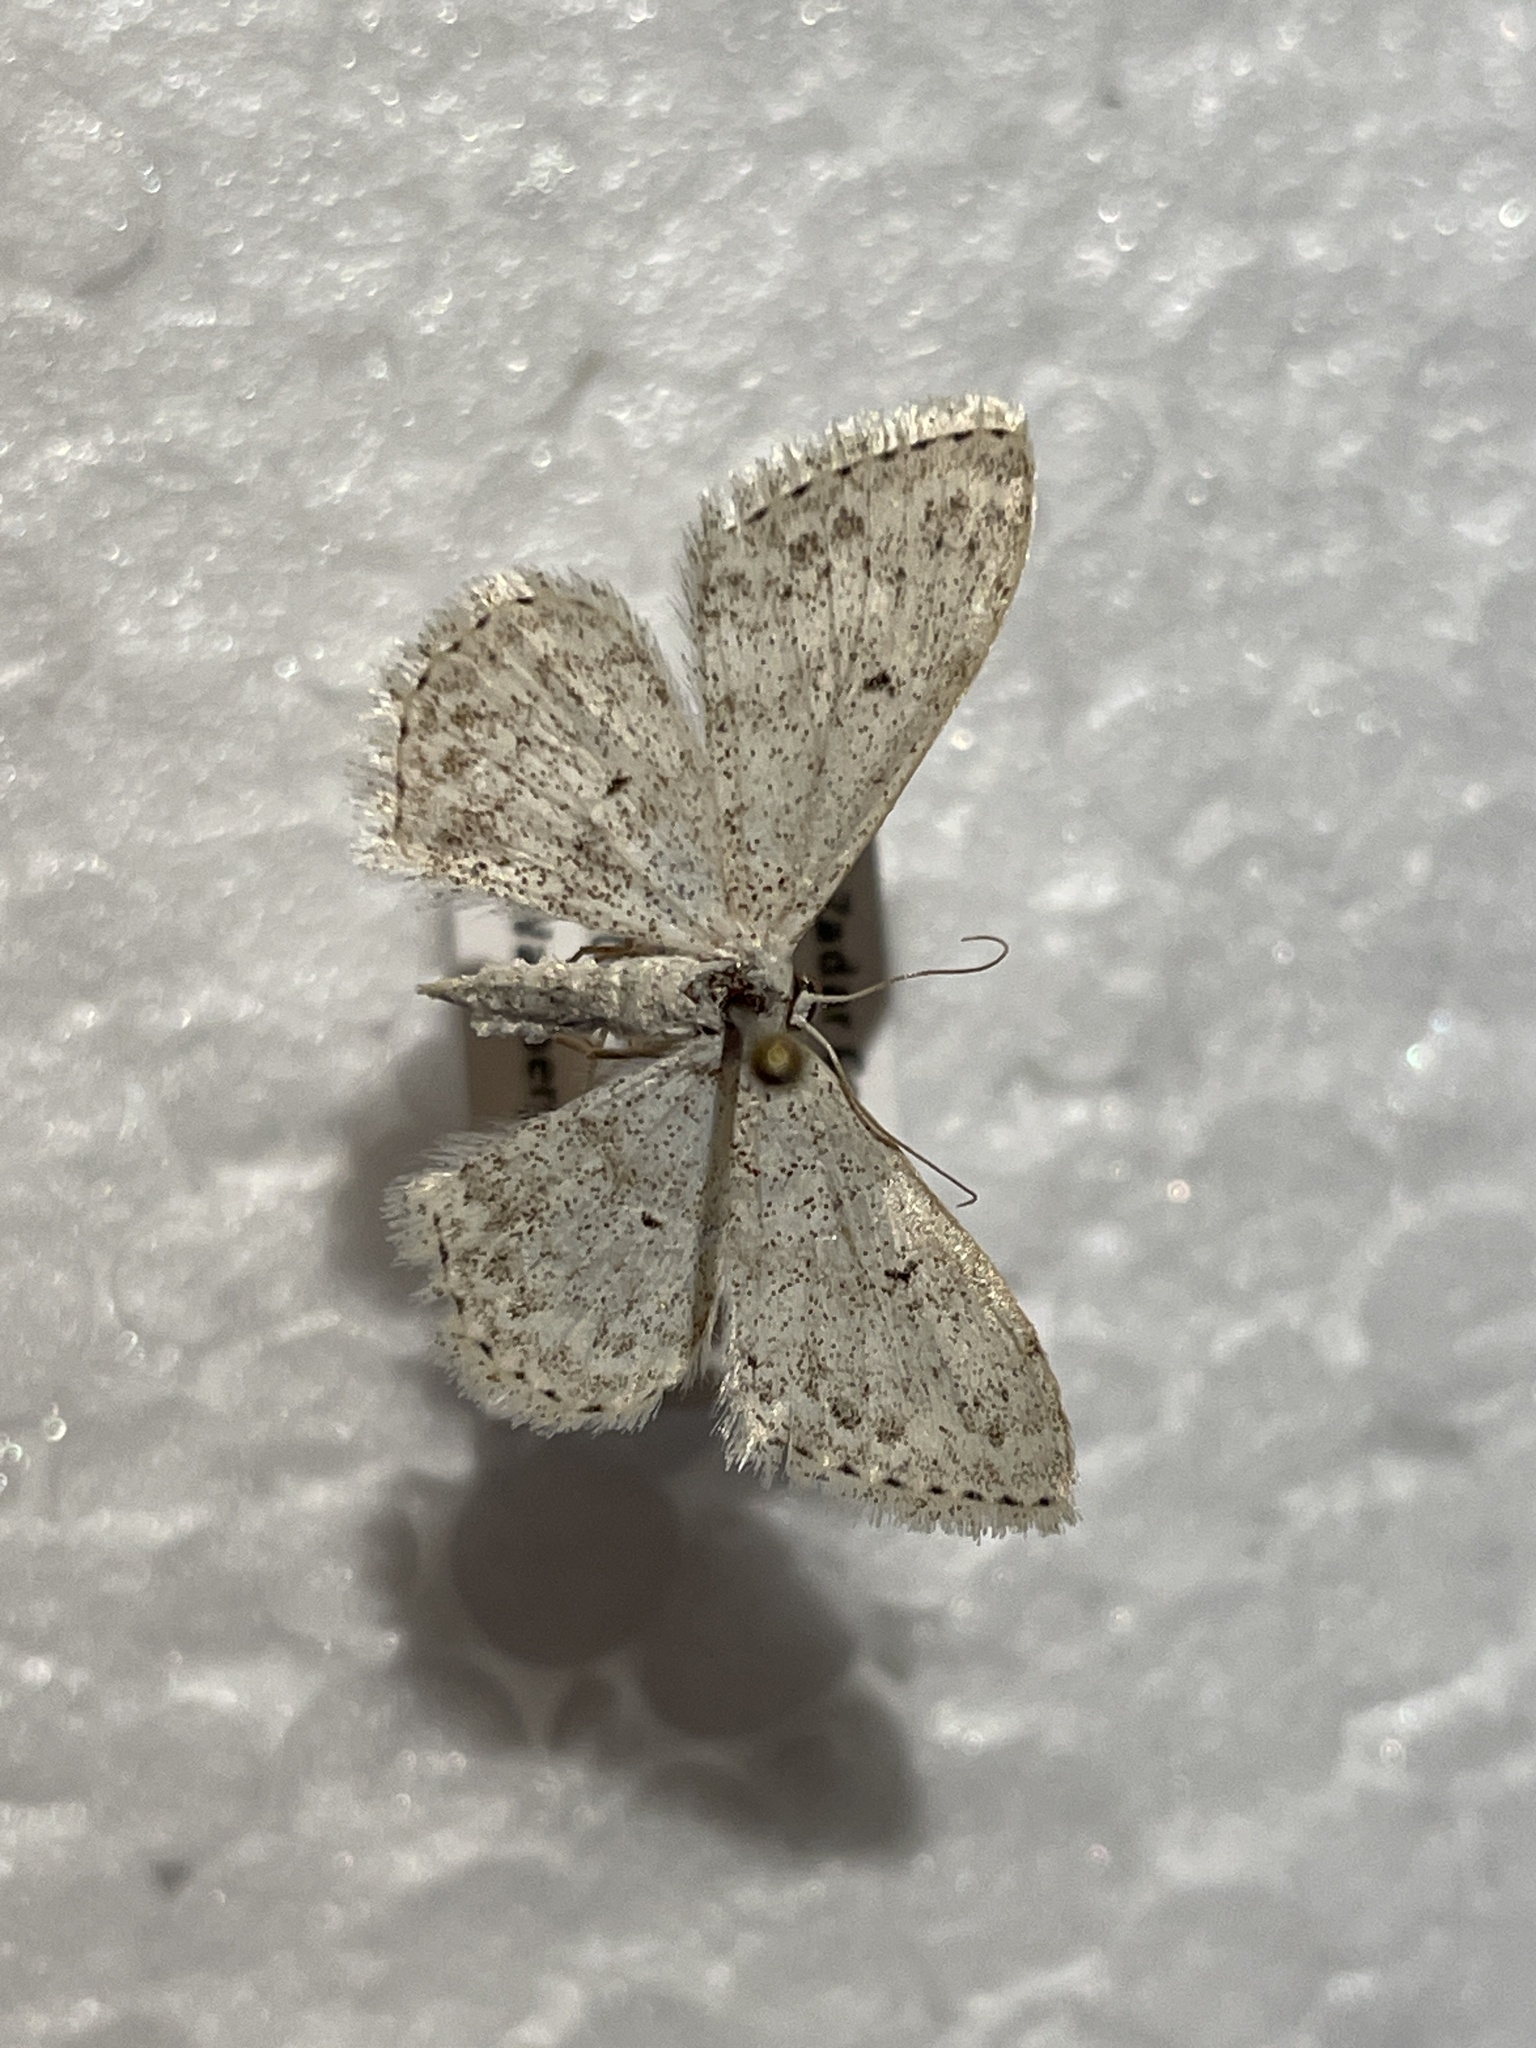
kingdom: Animalia
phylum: Arthropoda
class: Insecta
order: Lepidoptera
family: Geometridae
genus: Idaea
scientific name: Idaea seriata
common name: Small dusty wave
